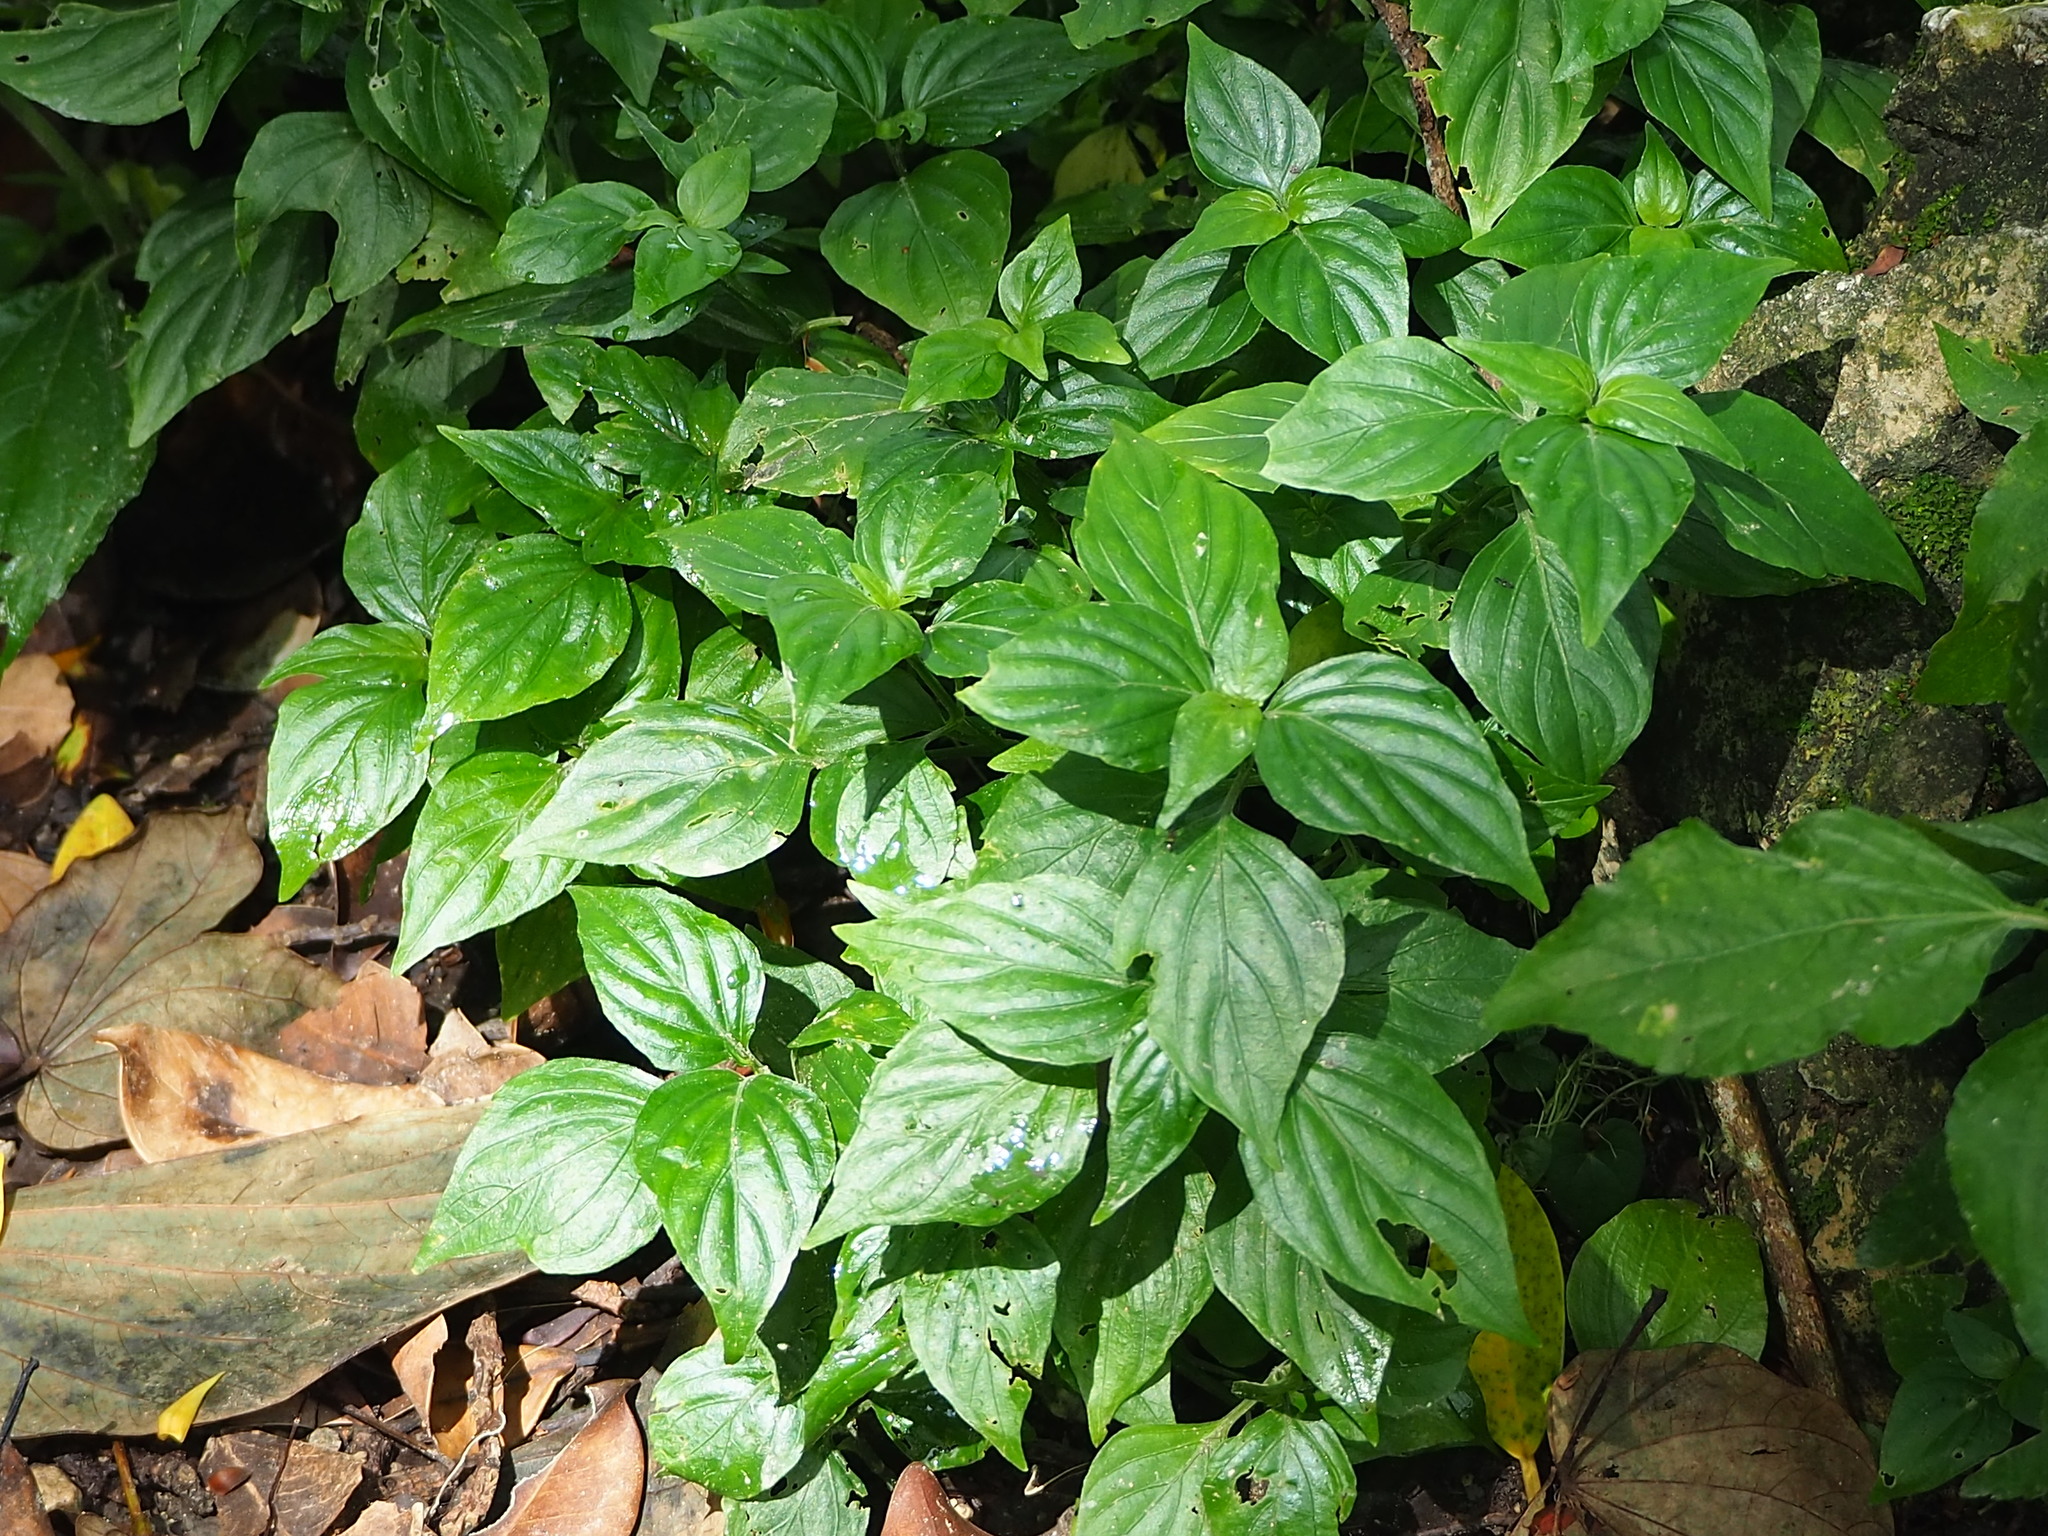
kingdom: Plantae
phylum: Tracheophyta
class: Magnoliopsida
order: Lamiales
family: Acanthaceae
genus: Dicliptera
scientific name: Dicliptera chinensis
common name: Chinese foldwing
